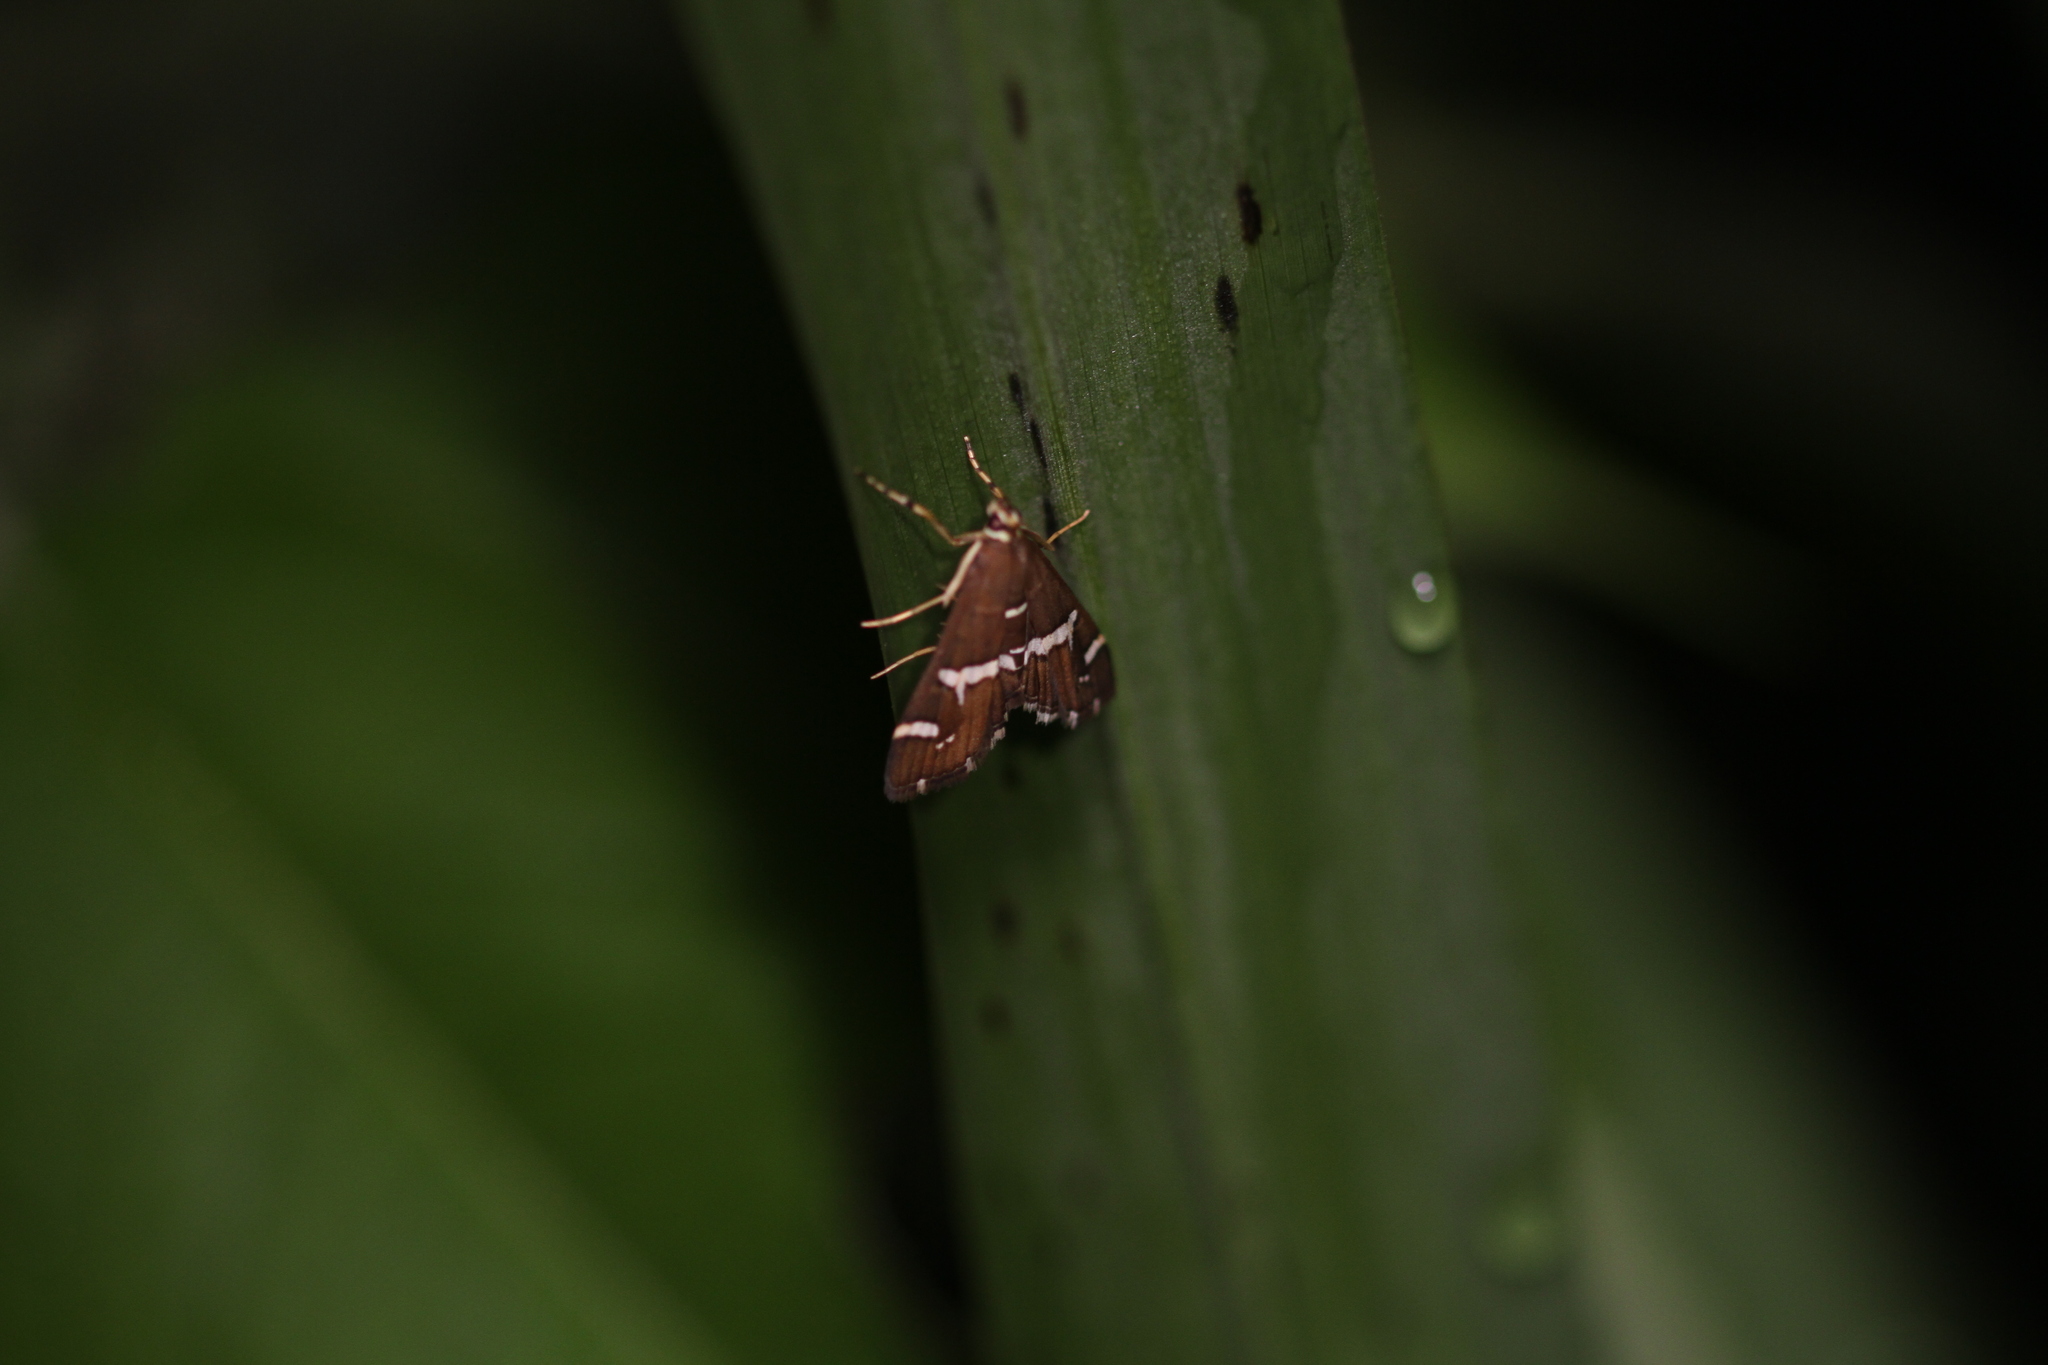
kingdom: Animalia
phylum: Arthropoda
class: Insecta
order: Lepidoptera
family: Crambidae
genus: Spoladea
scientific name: Spoladea recurvalis
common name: Beet webworm moth
